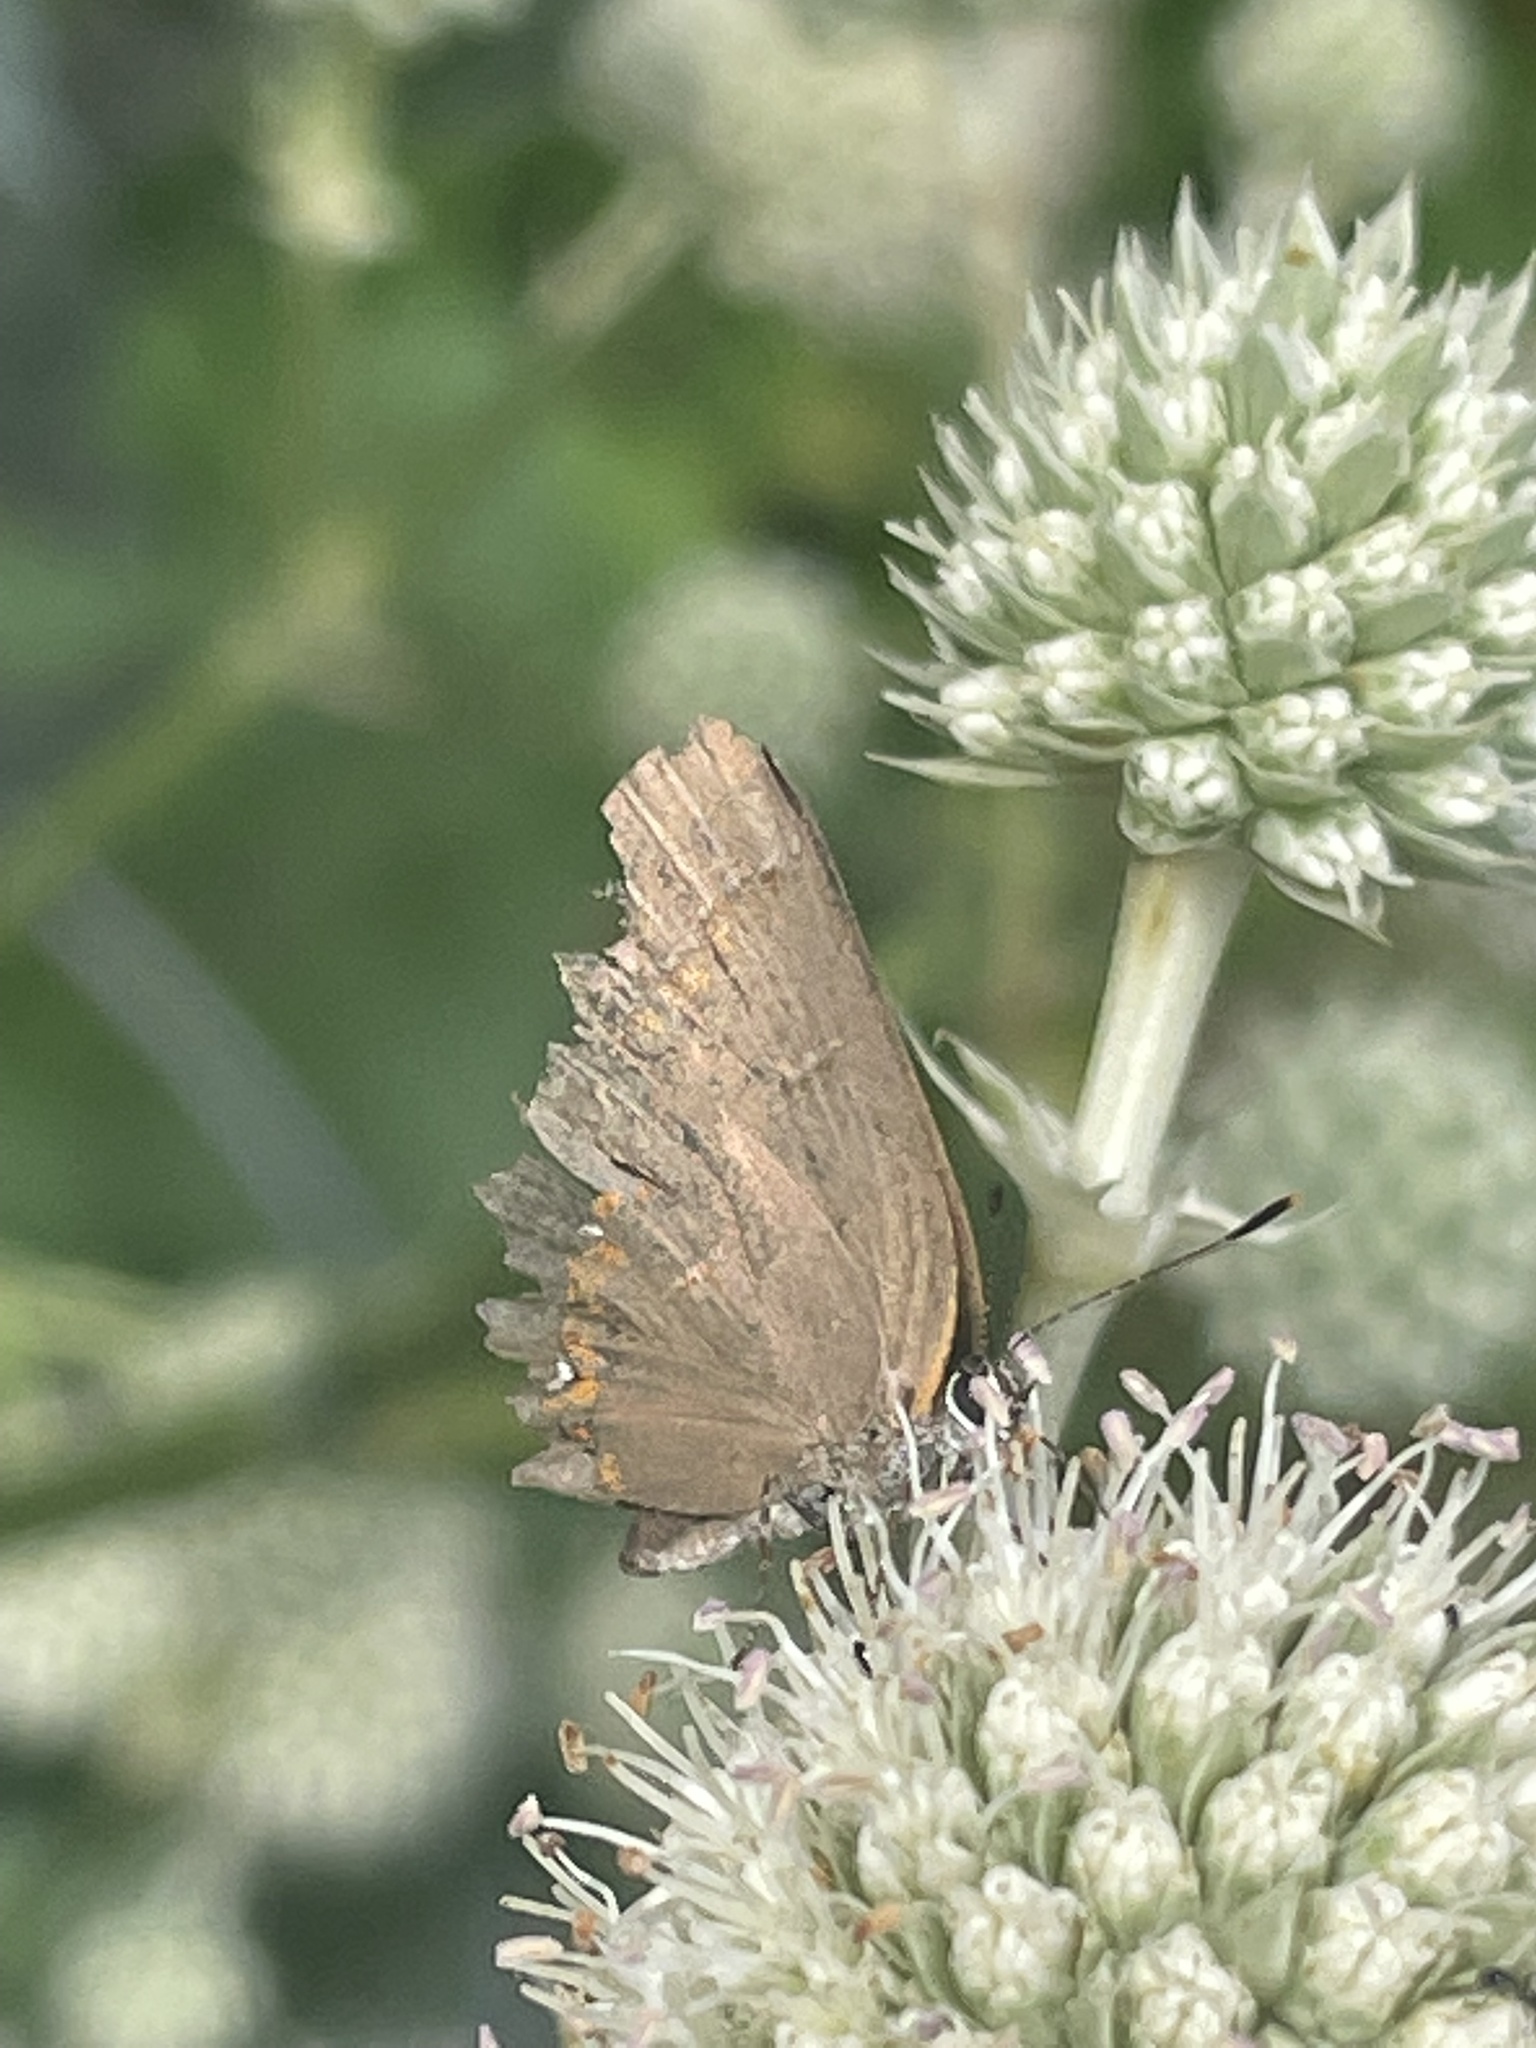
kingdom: Animalia
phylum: Arthropoda
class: Insecta
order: Lepidoptera
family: Lycaenidae
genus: Calycopis
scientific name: Calycopis cecrops
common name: Red-banded hairstreak
